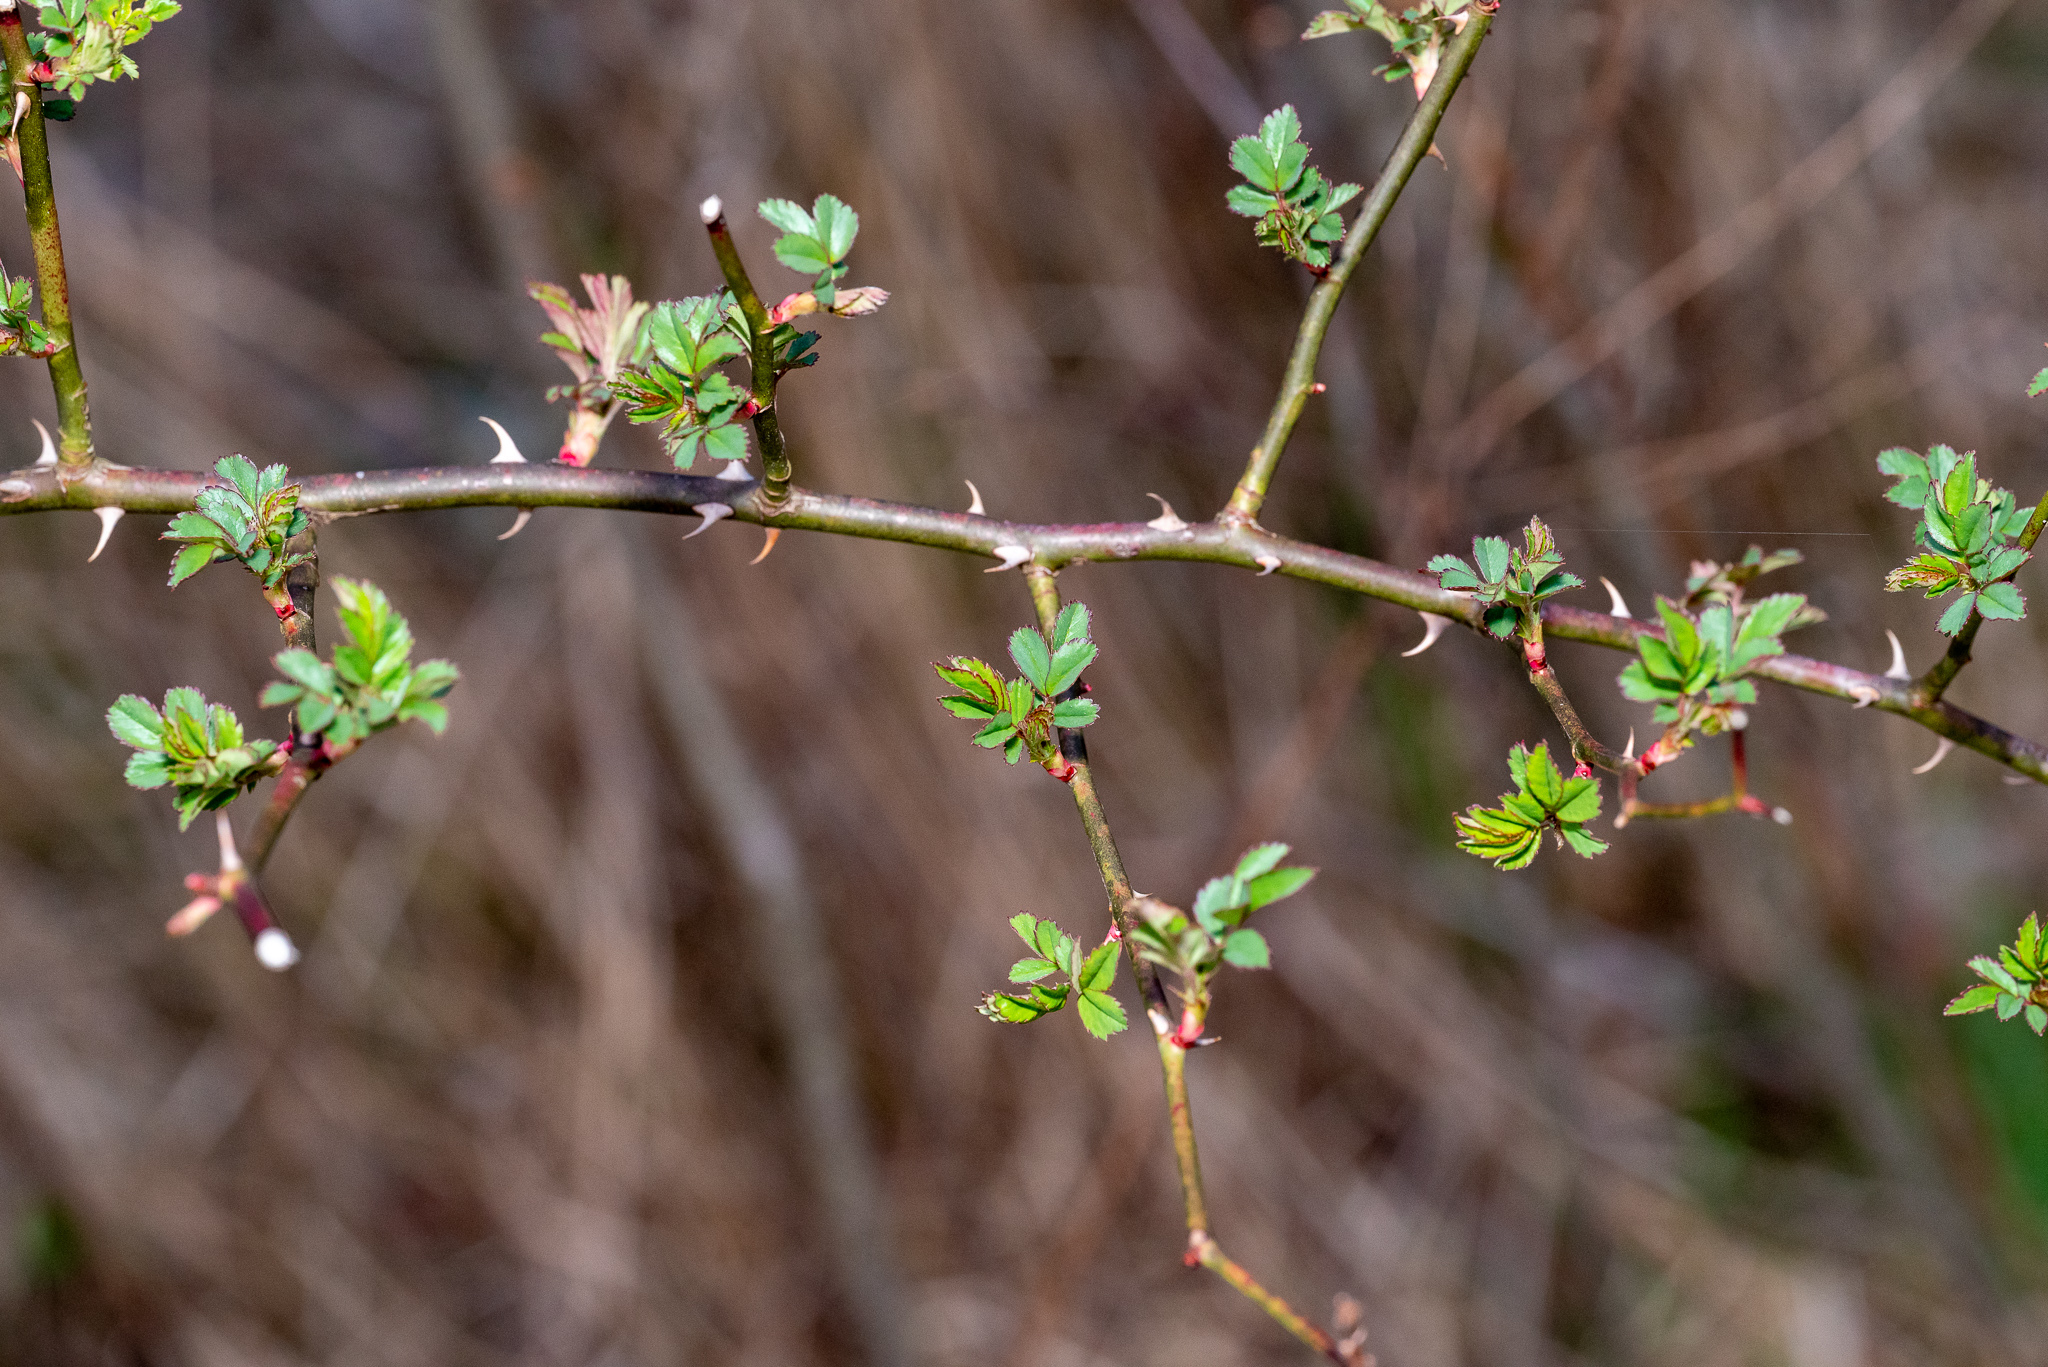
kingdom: Plantae
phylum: Tracheophyta
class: Magnoliopsida
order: Rosales
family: Rosaceae
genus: Rosa
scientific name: Rosa multiflora
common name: Multiflora rose
